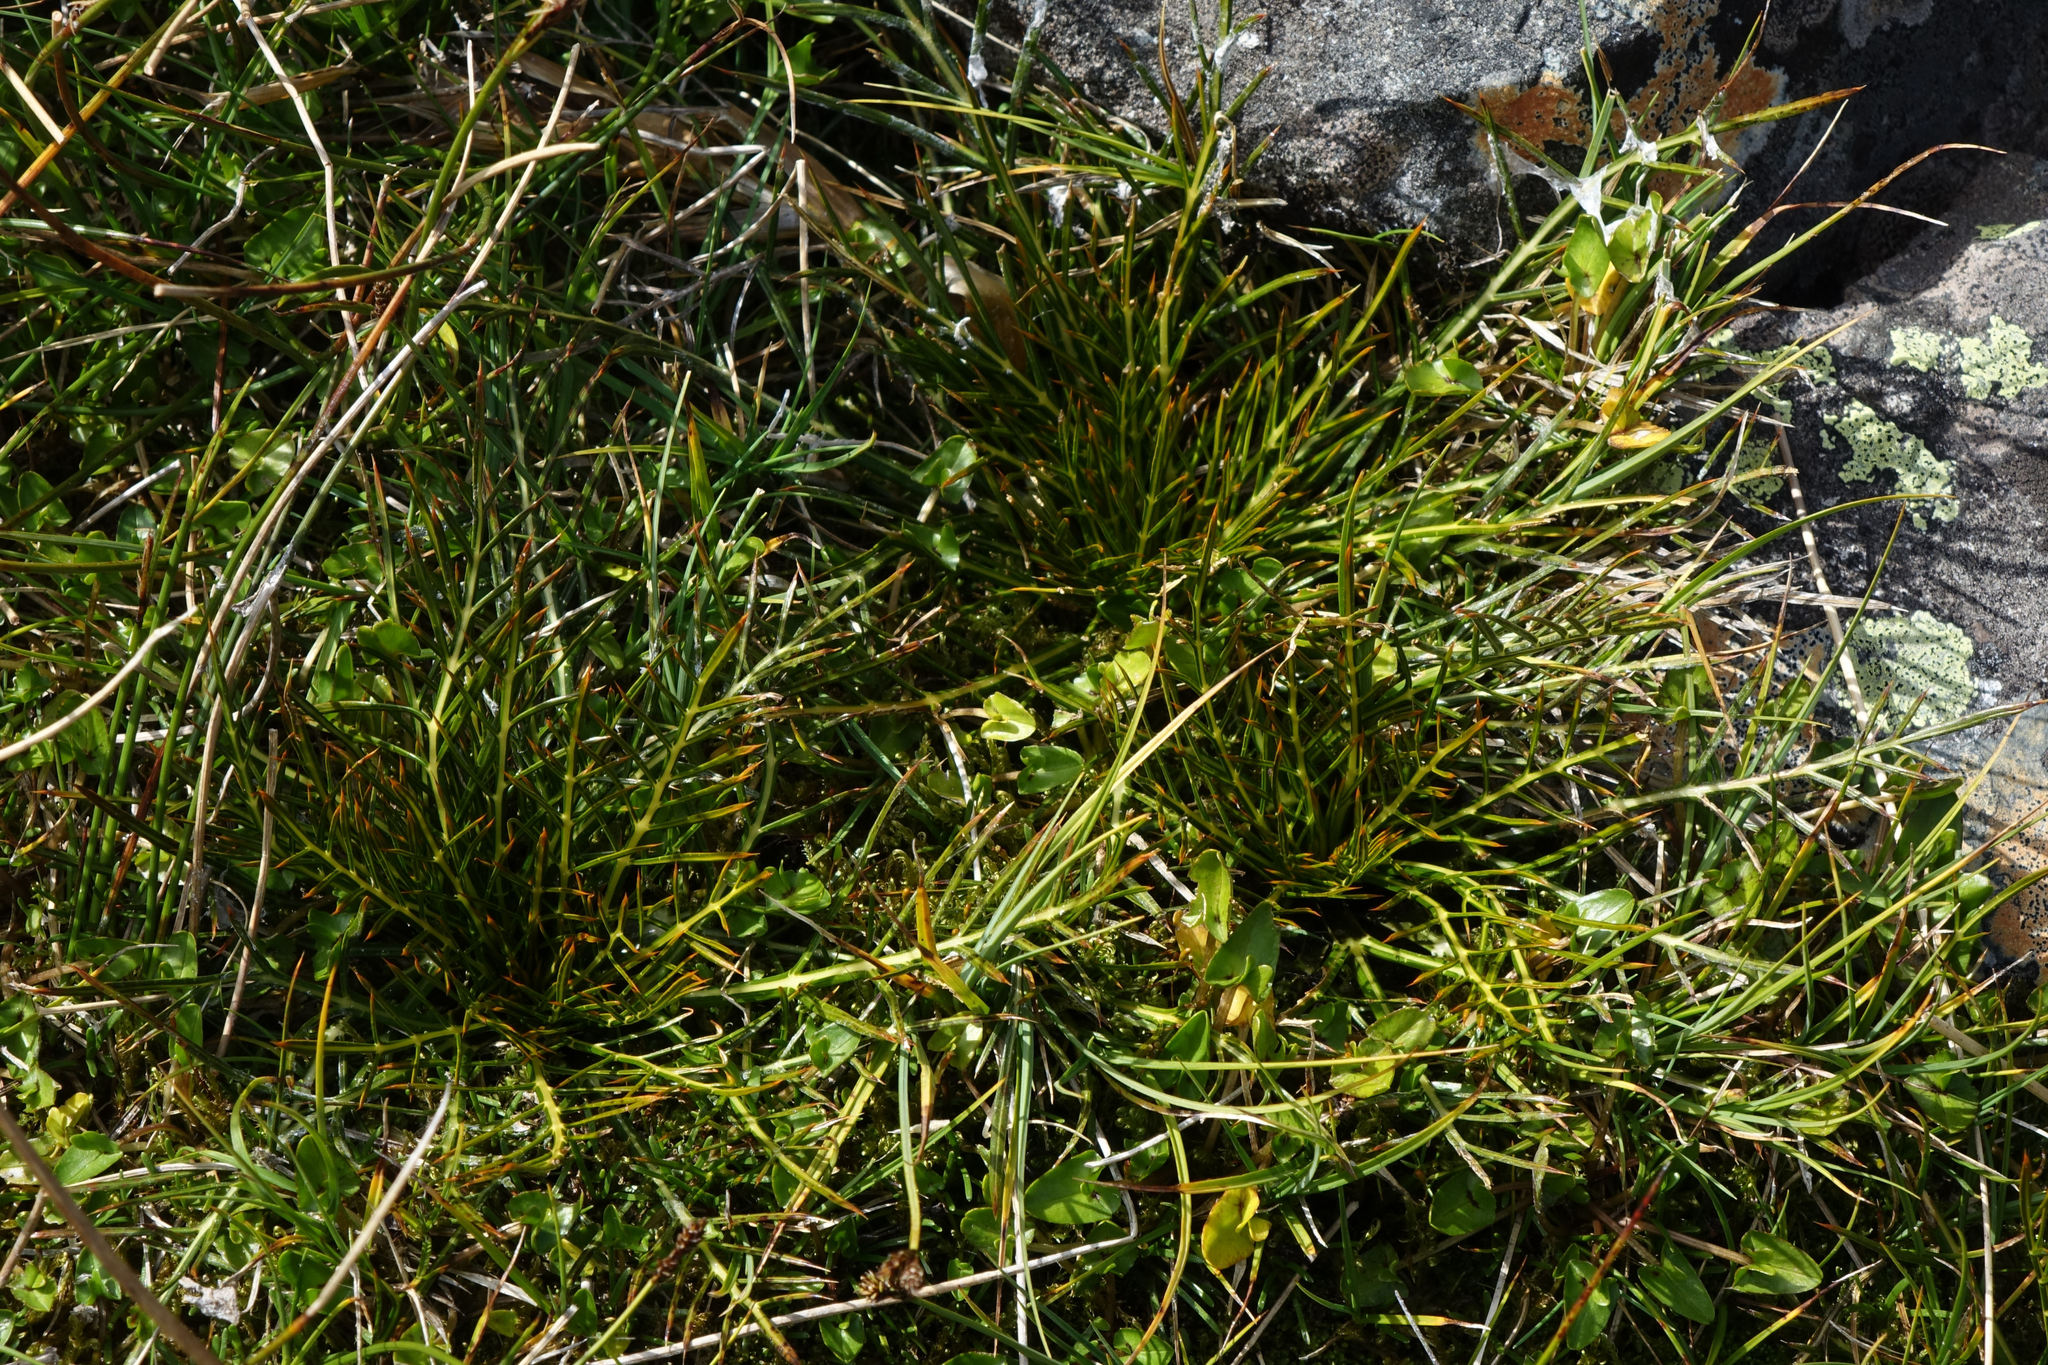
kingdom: Plantae
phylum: Tracheophyta
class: Magnoliopsida
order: Apiales
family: Apiaceae
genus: Aciphylla
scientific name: Aciphylla pinnatifida
